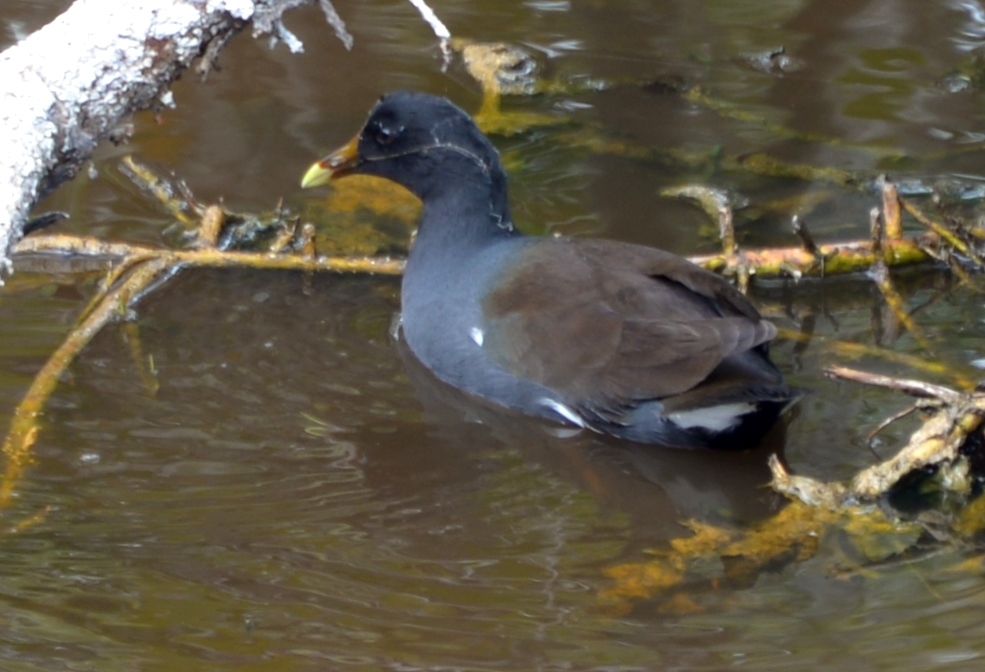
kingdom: Animalia
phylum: Chordata
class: Aves
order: Gruiformes
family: Rallidae
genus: Gallinula
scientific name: Gallinula chloropus
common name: Common moorhen
